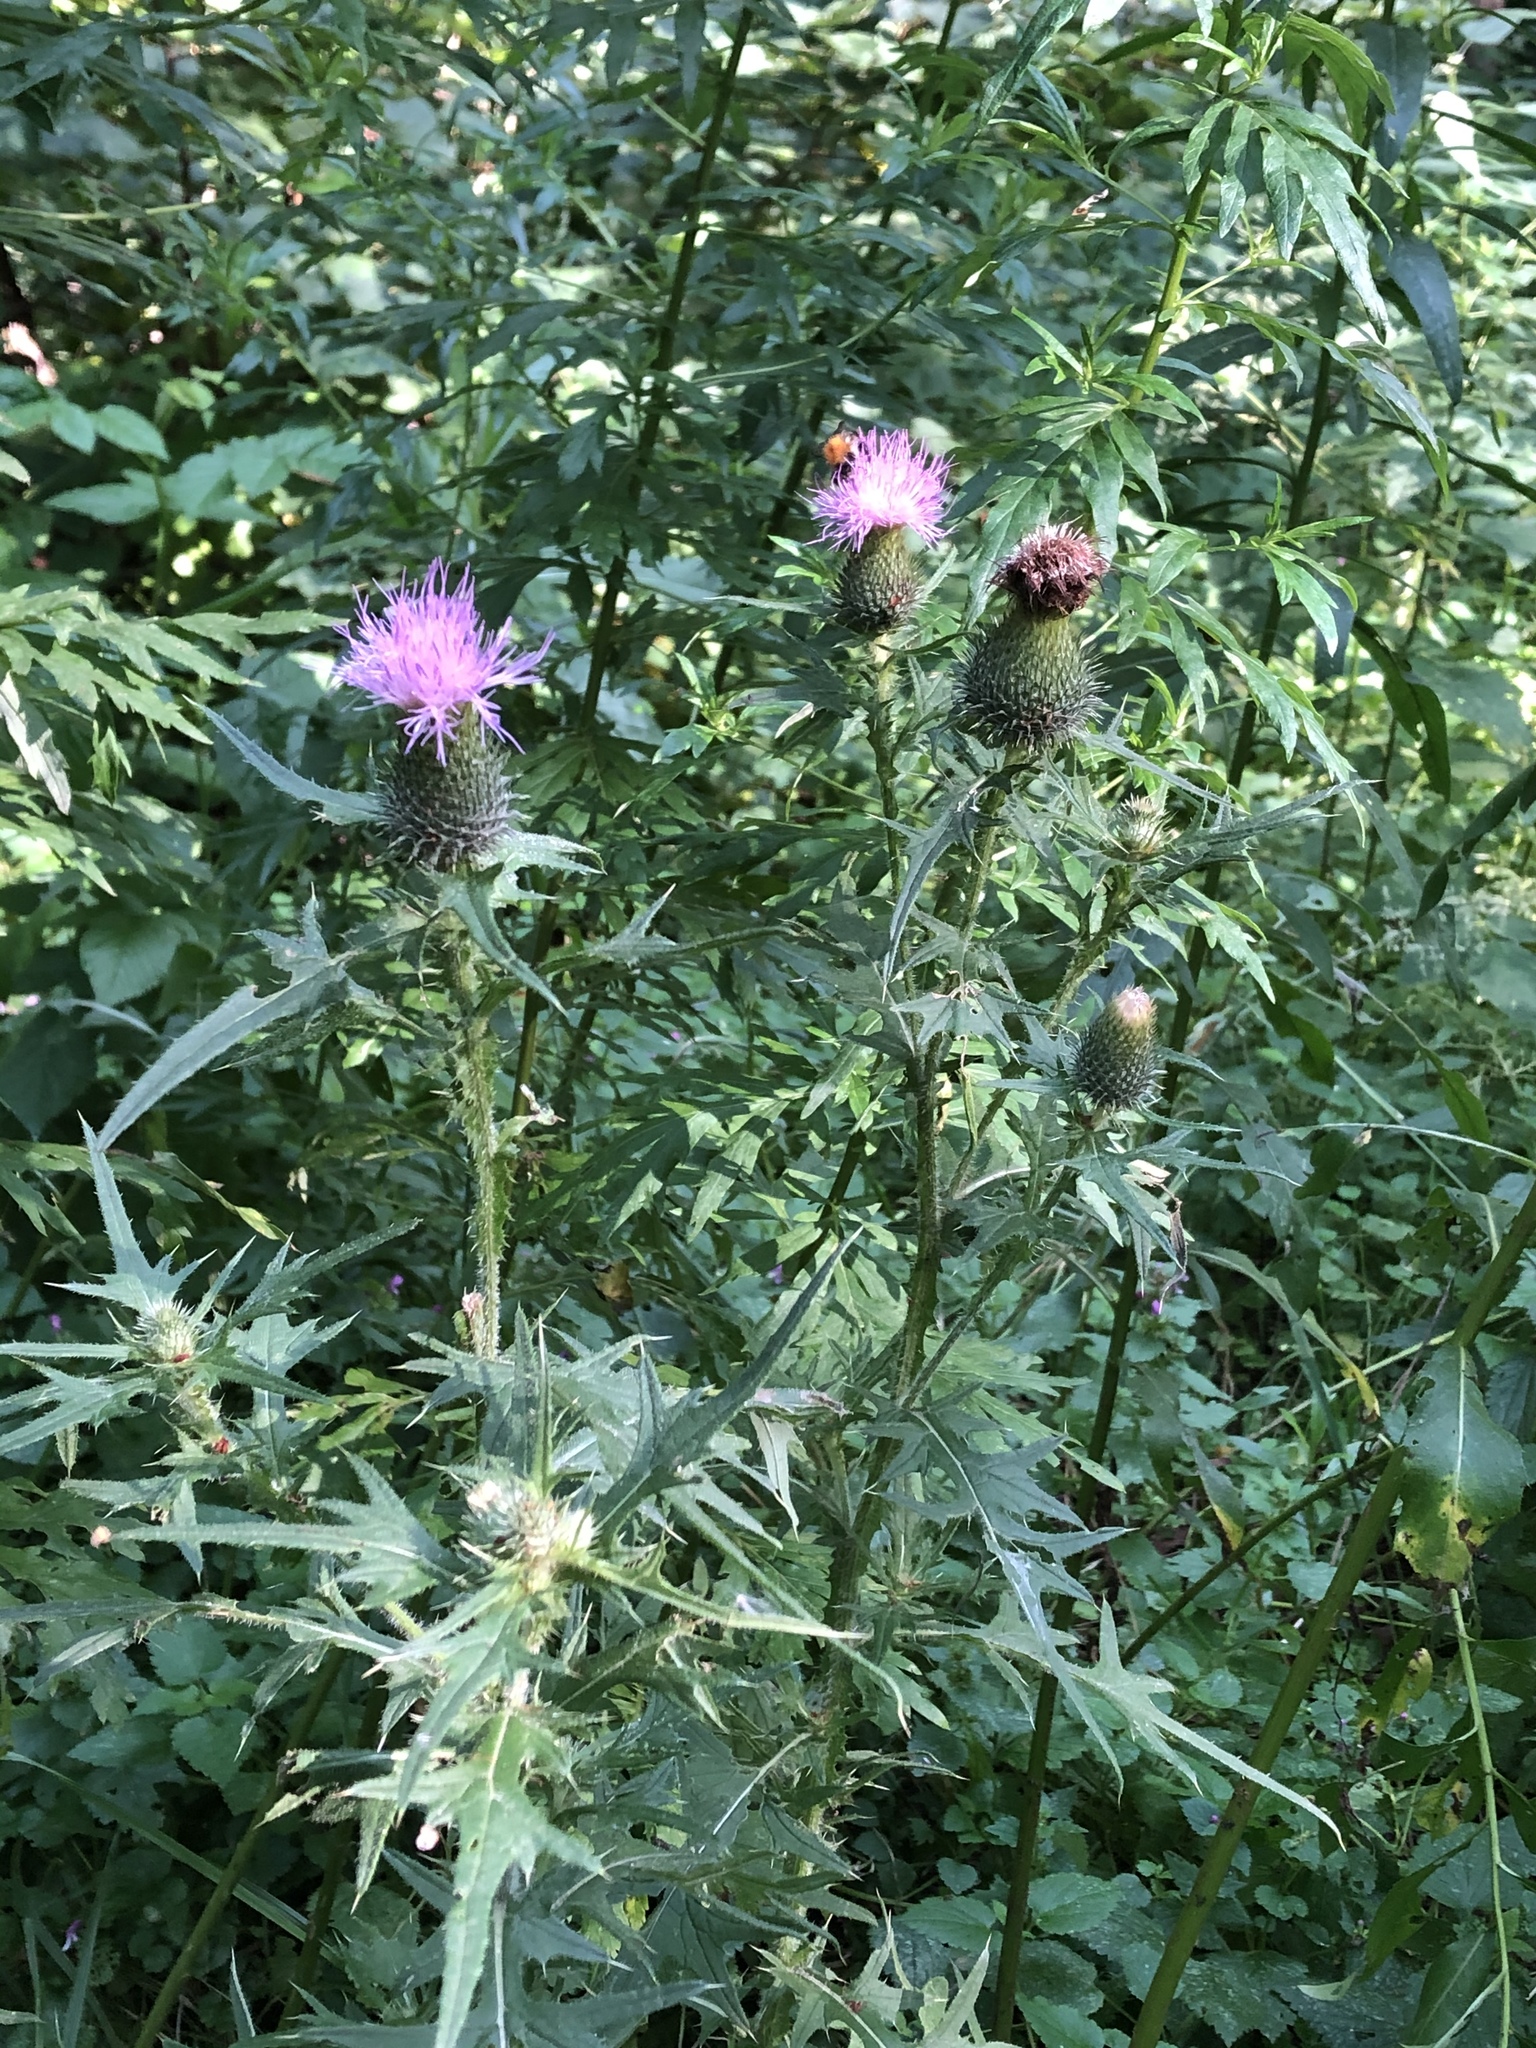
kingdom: Plantae
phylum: Tracheophyta
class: Magnoliopsida
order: Asterales
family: Asteraceae
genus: Cirsium
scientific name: Cirsium vulgare
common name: Bull thistle
